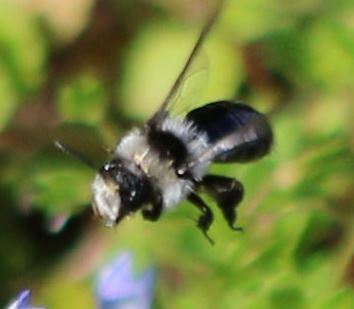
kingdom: Animalia
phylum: Arthropoda
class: Insecta
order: Hymenoptera
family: Andrenidae
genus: Andrena
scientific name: Andrena cineraria
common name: Ashy mining bee
